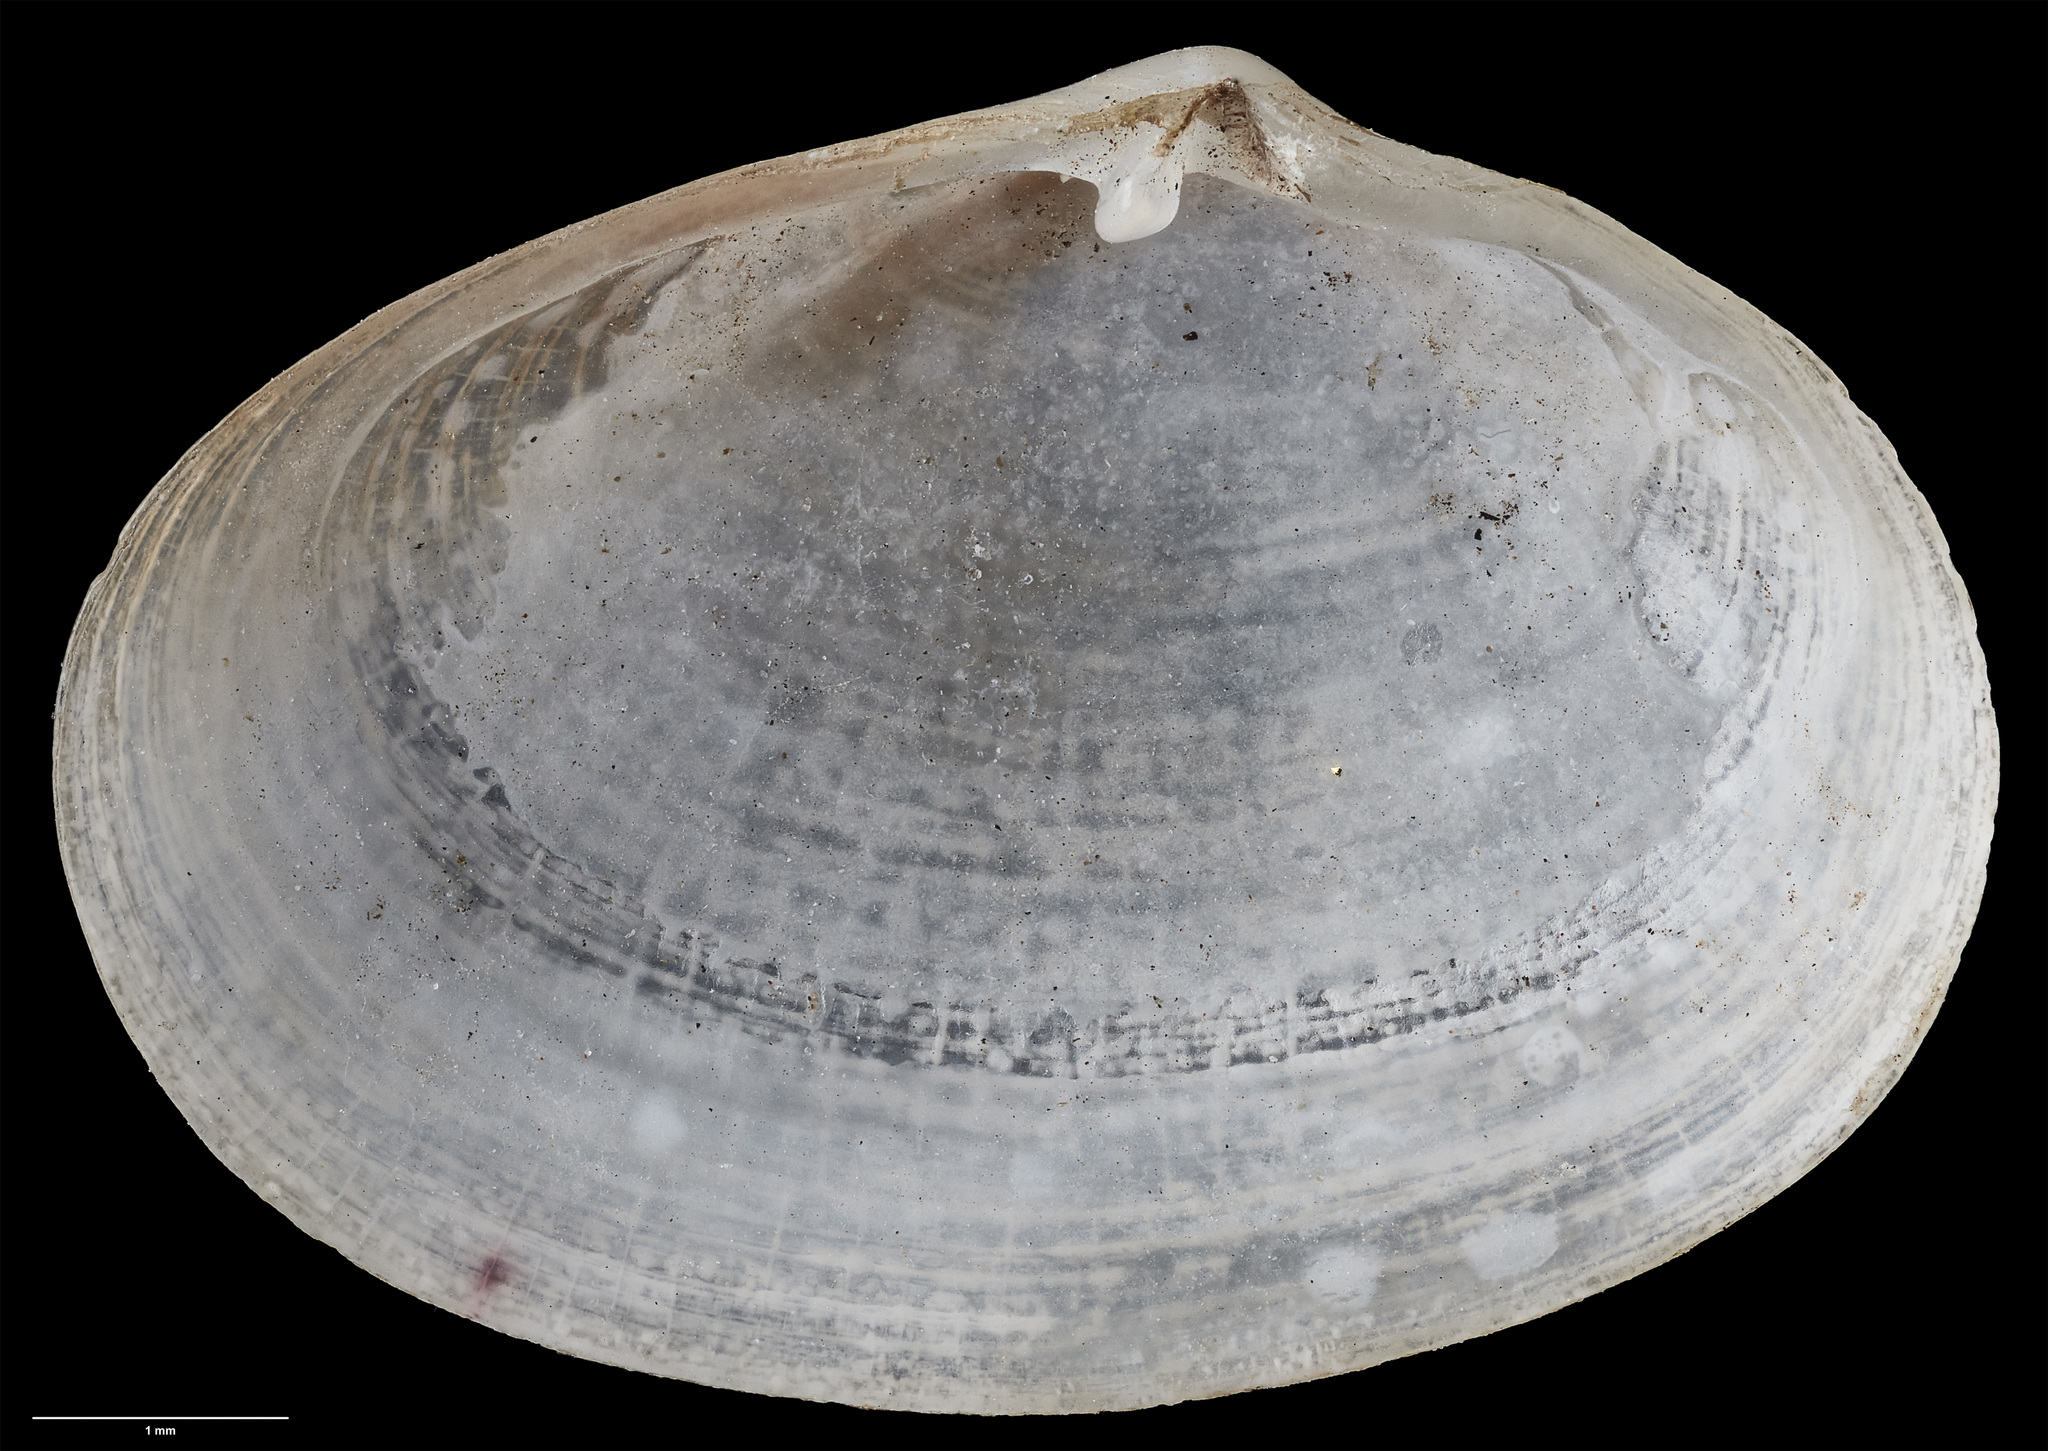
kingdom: Animalia
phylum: Mollusca
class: Bivalvia
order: Galeommatida
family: Lasaeidae
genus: Mysella
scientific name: Mysella larochei
